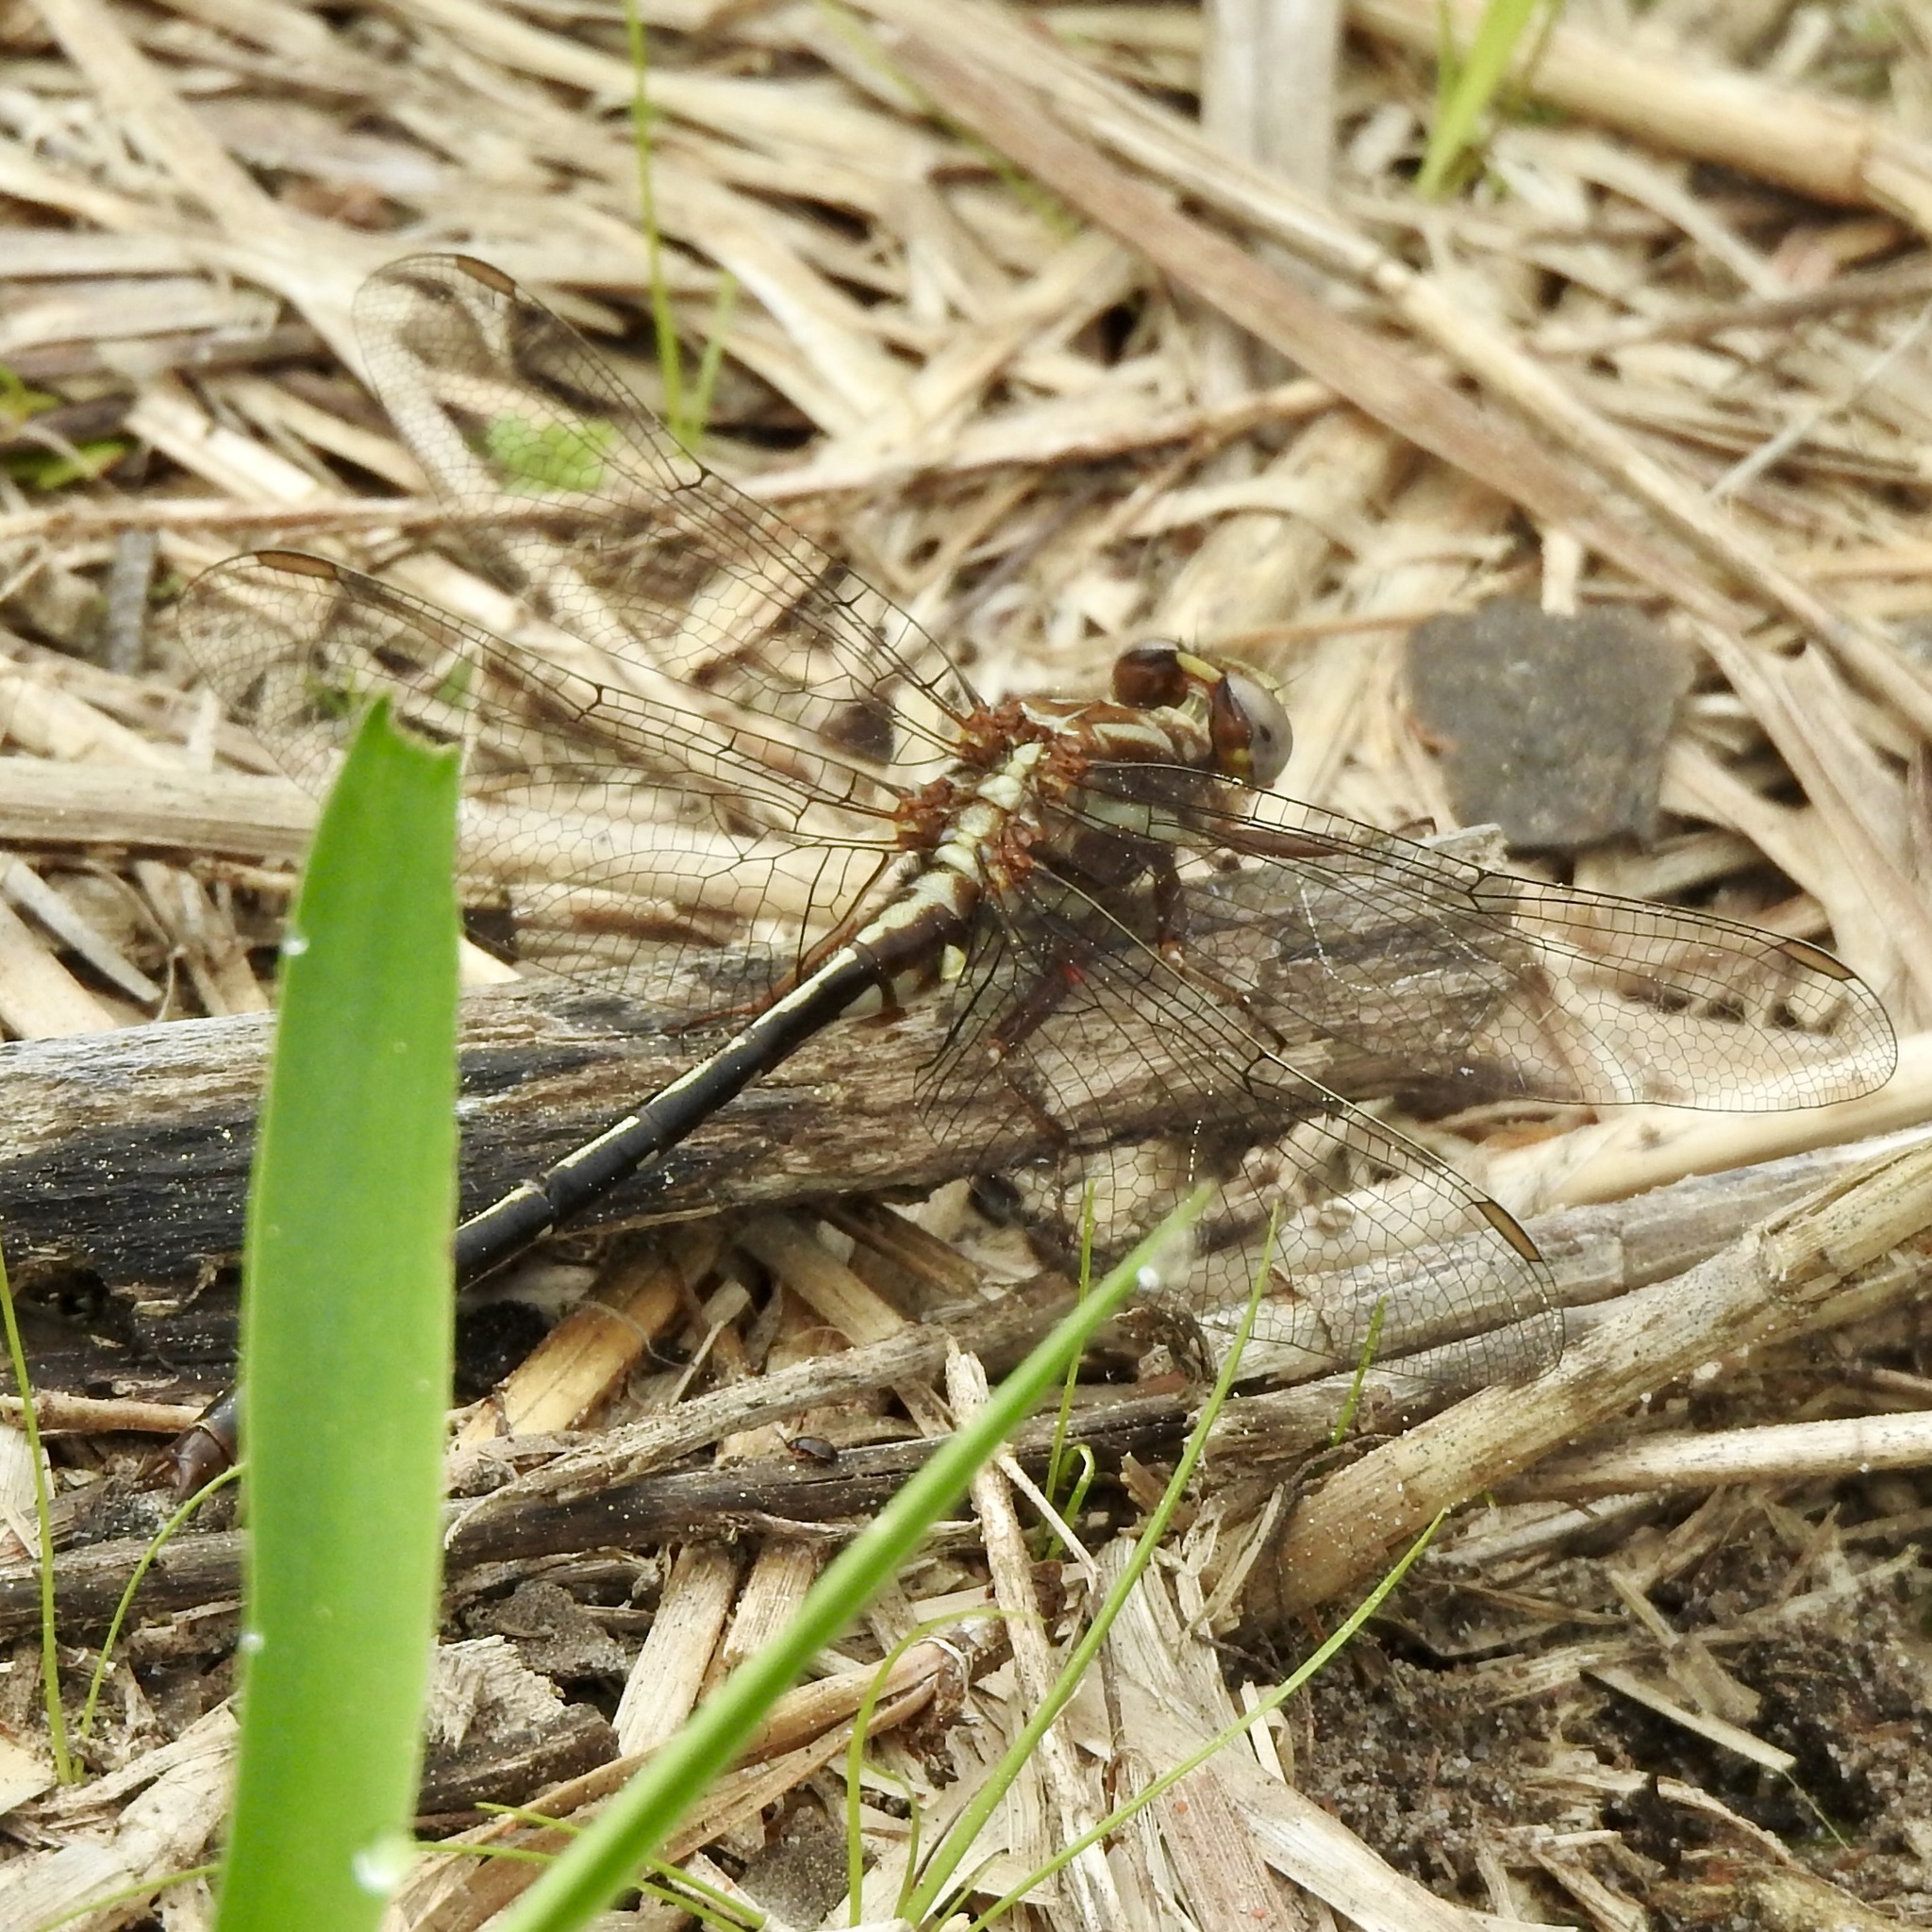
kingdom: Animalia
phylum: Arthropoda
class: Insecta
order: Odonata
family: Gomphidae
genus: Phanogomphus
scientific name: Phanogomphus lividus
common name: Ashy clubtail
